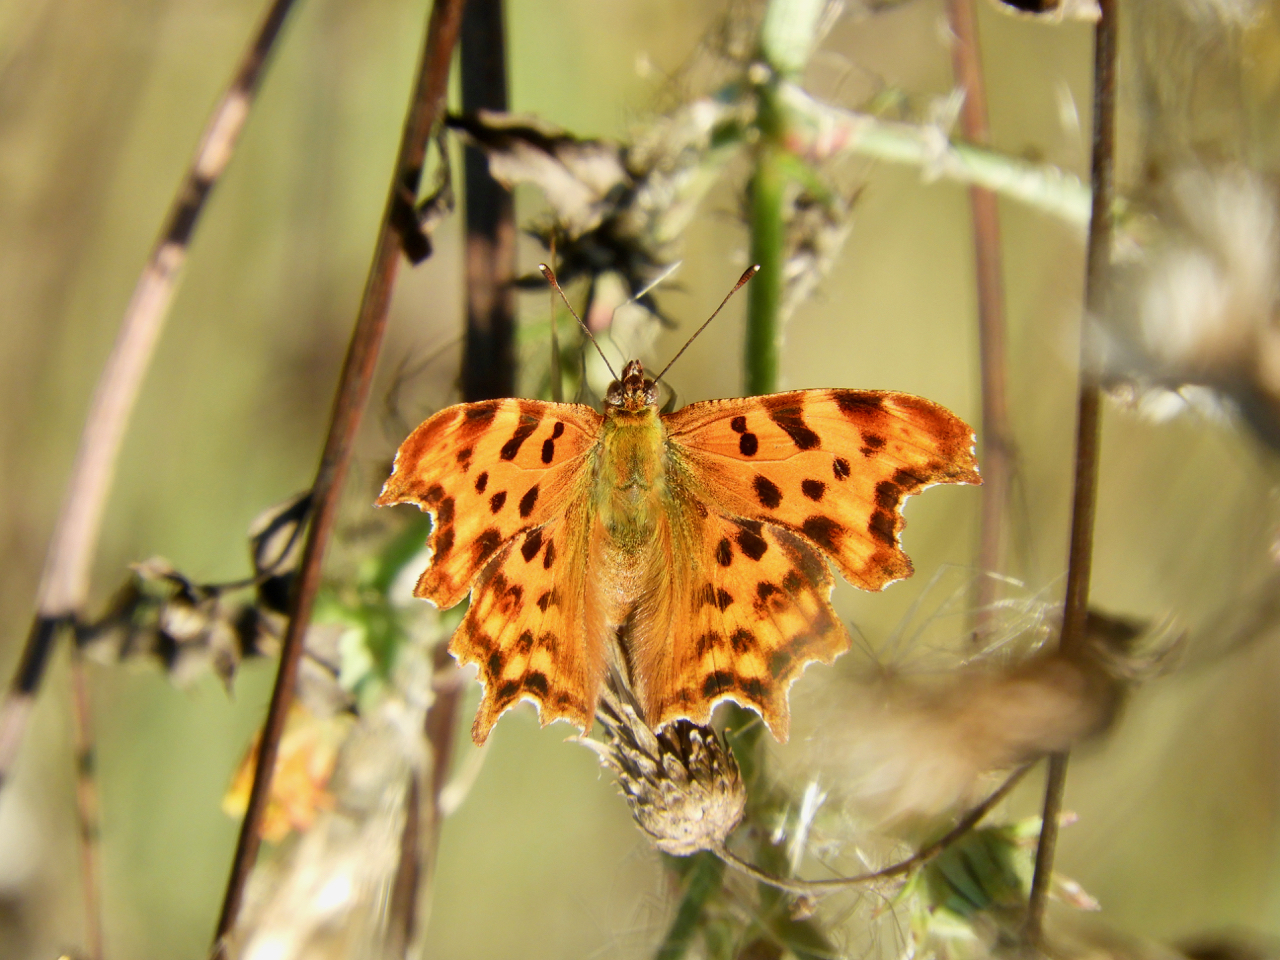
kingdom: Animalia
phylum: Arthropoda
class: Insecta
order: Lepidoptera
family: Nymphalidae
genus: Polygonia
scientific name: Polygonia c-album
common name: Comma
